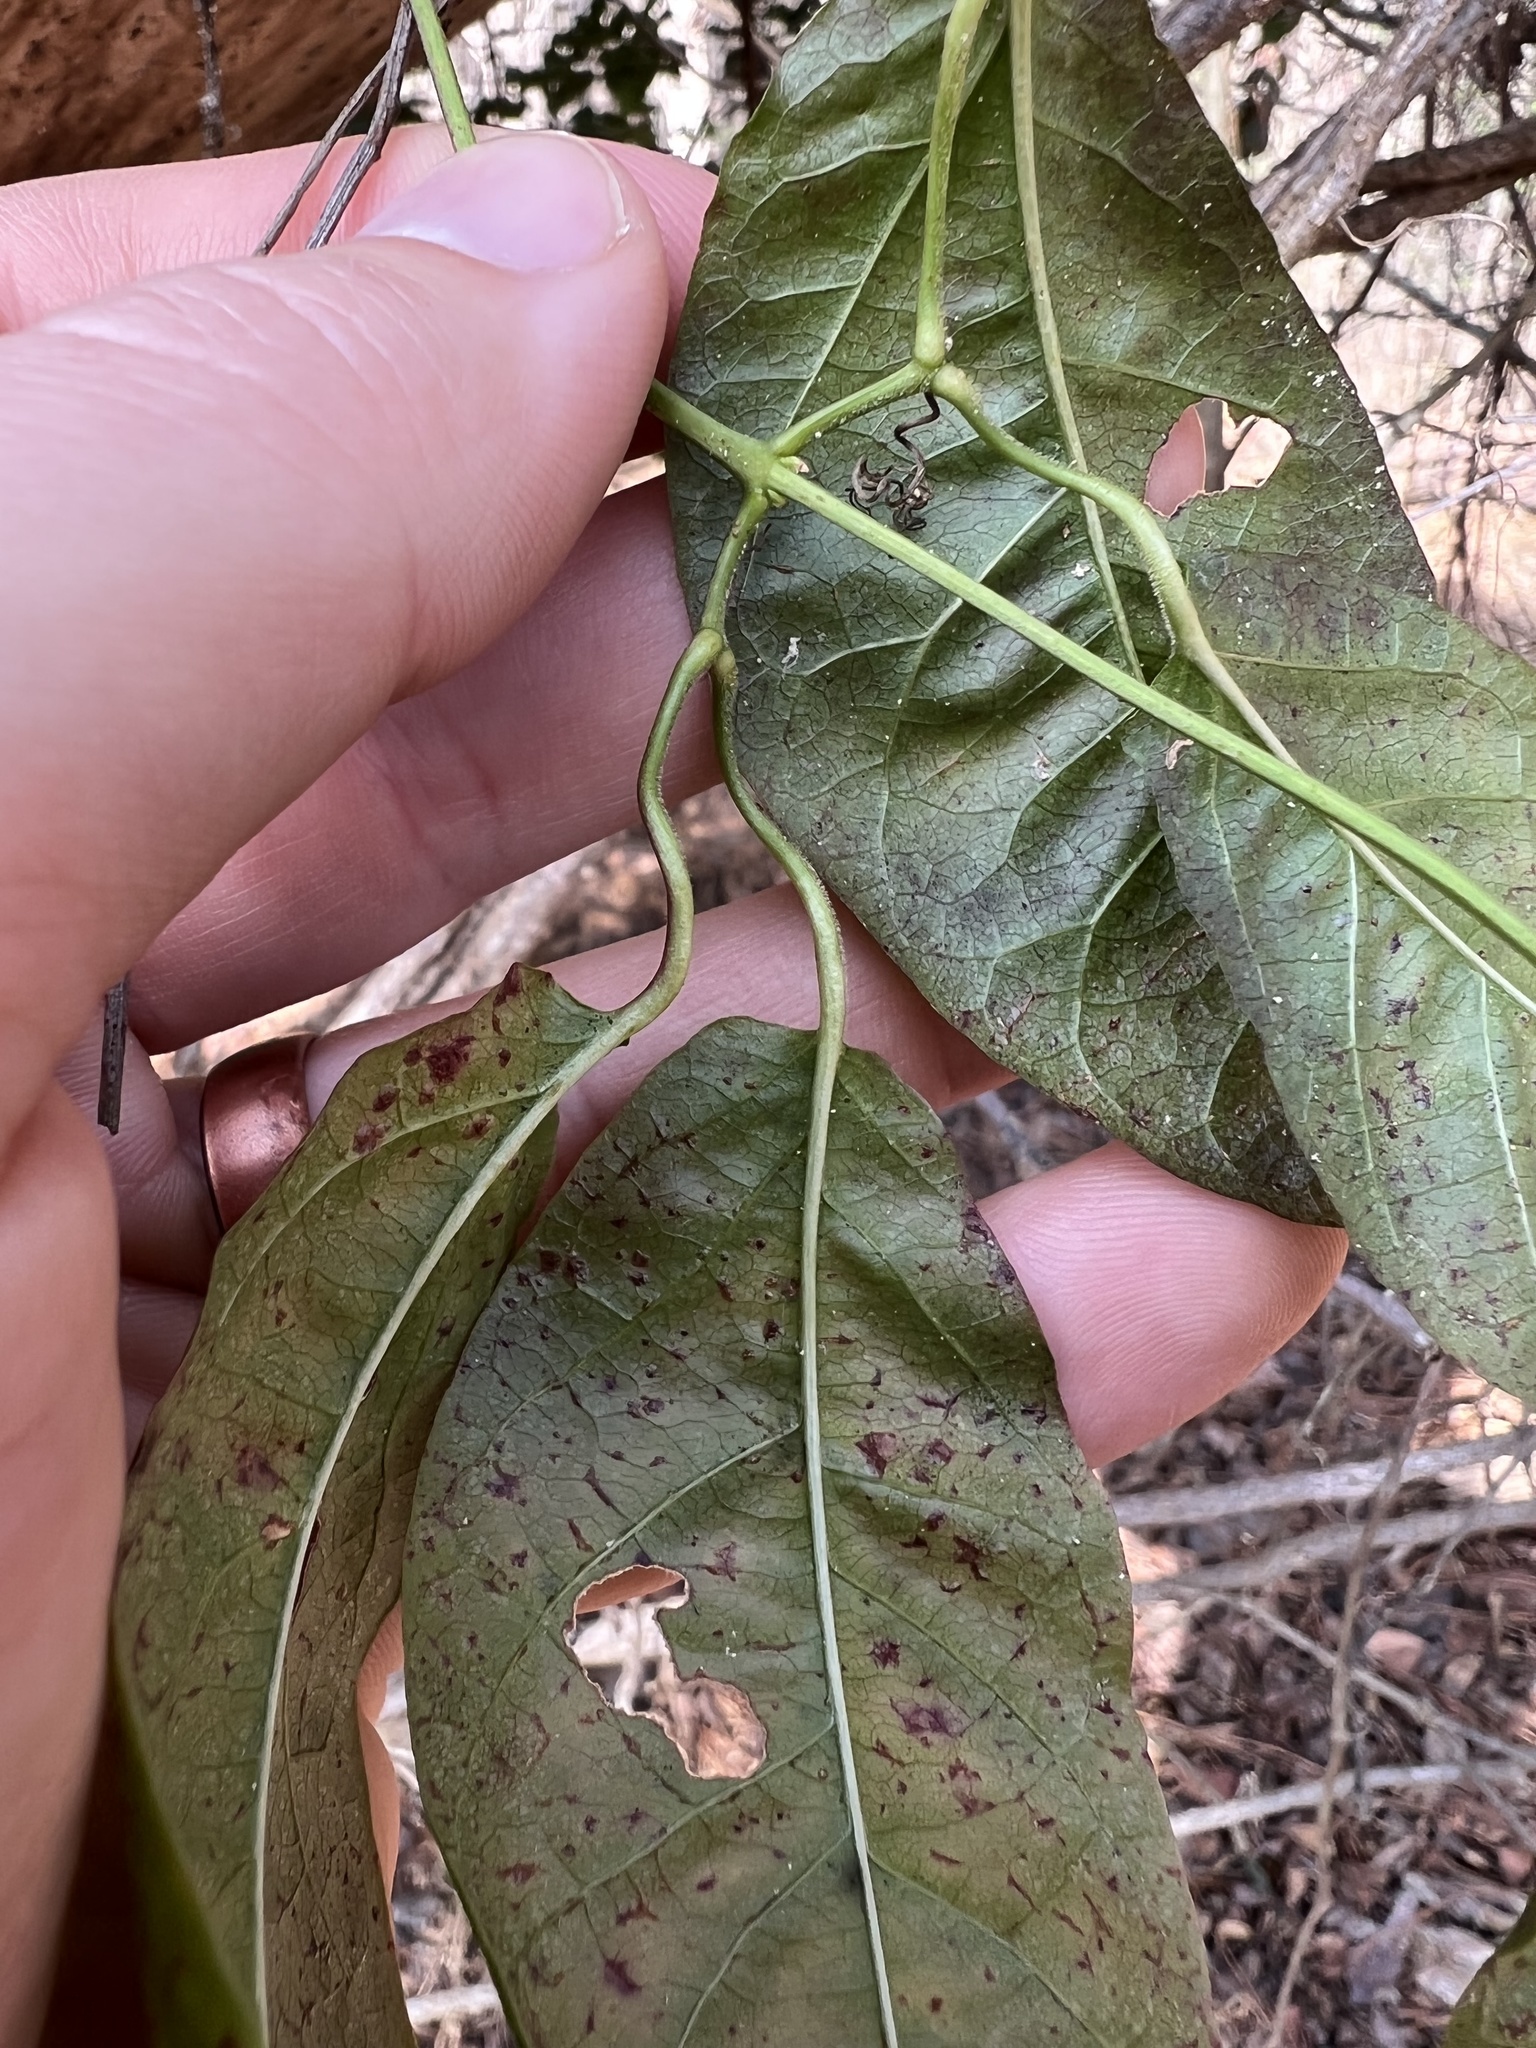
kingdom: Plantae
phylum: Tracheophyta
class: Magnoliopsida
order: Lamiales
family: Bignoniaceae
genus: Bignonia
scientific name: Bignonia capreolata
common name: Crossvine
